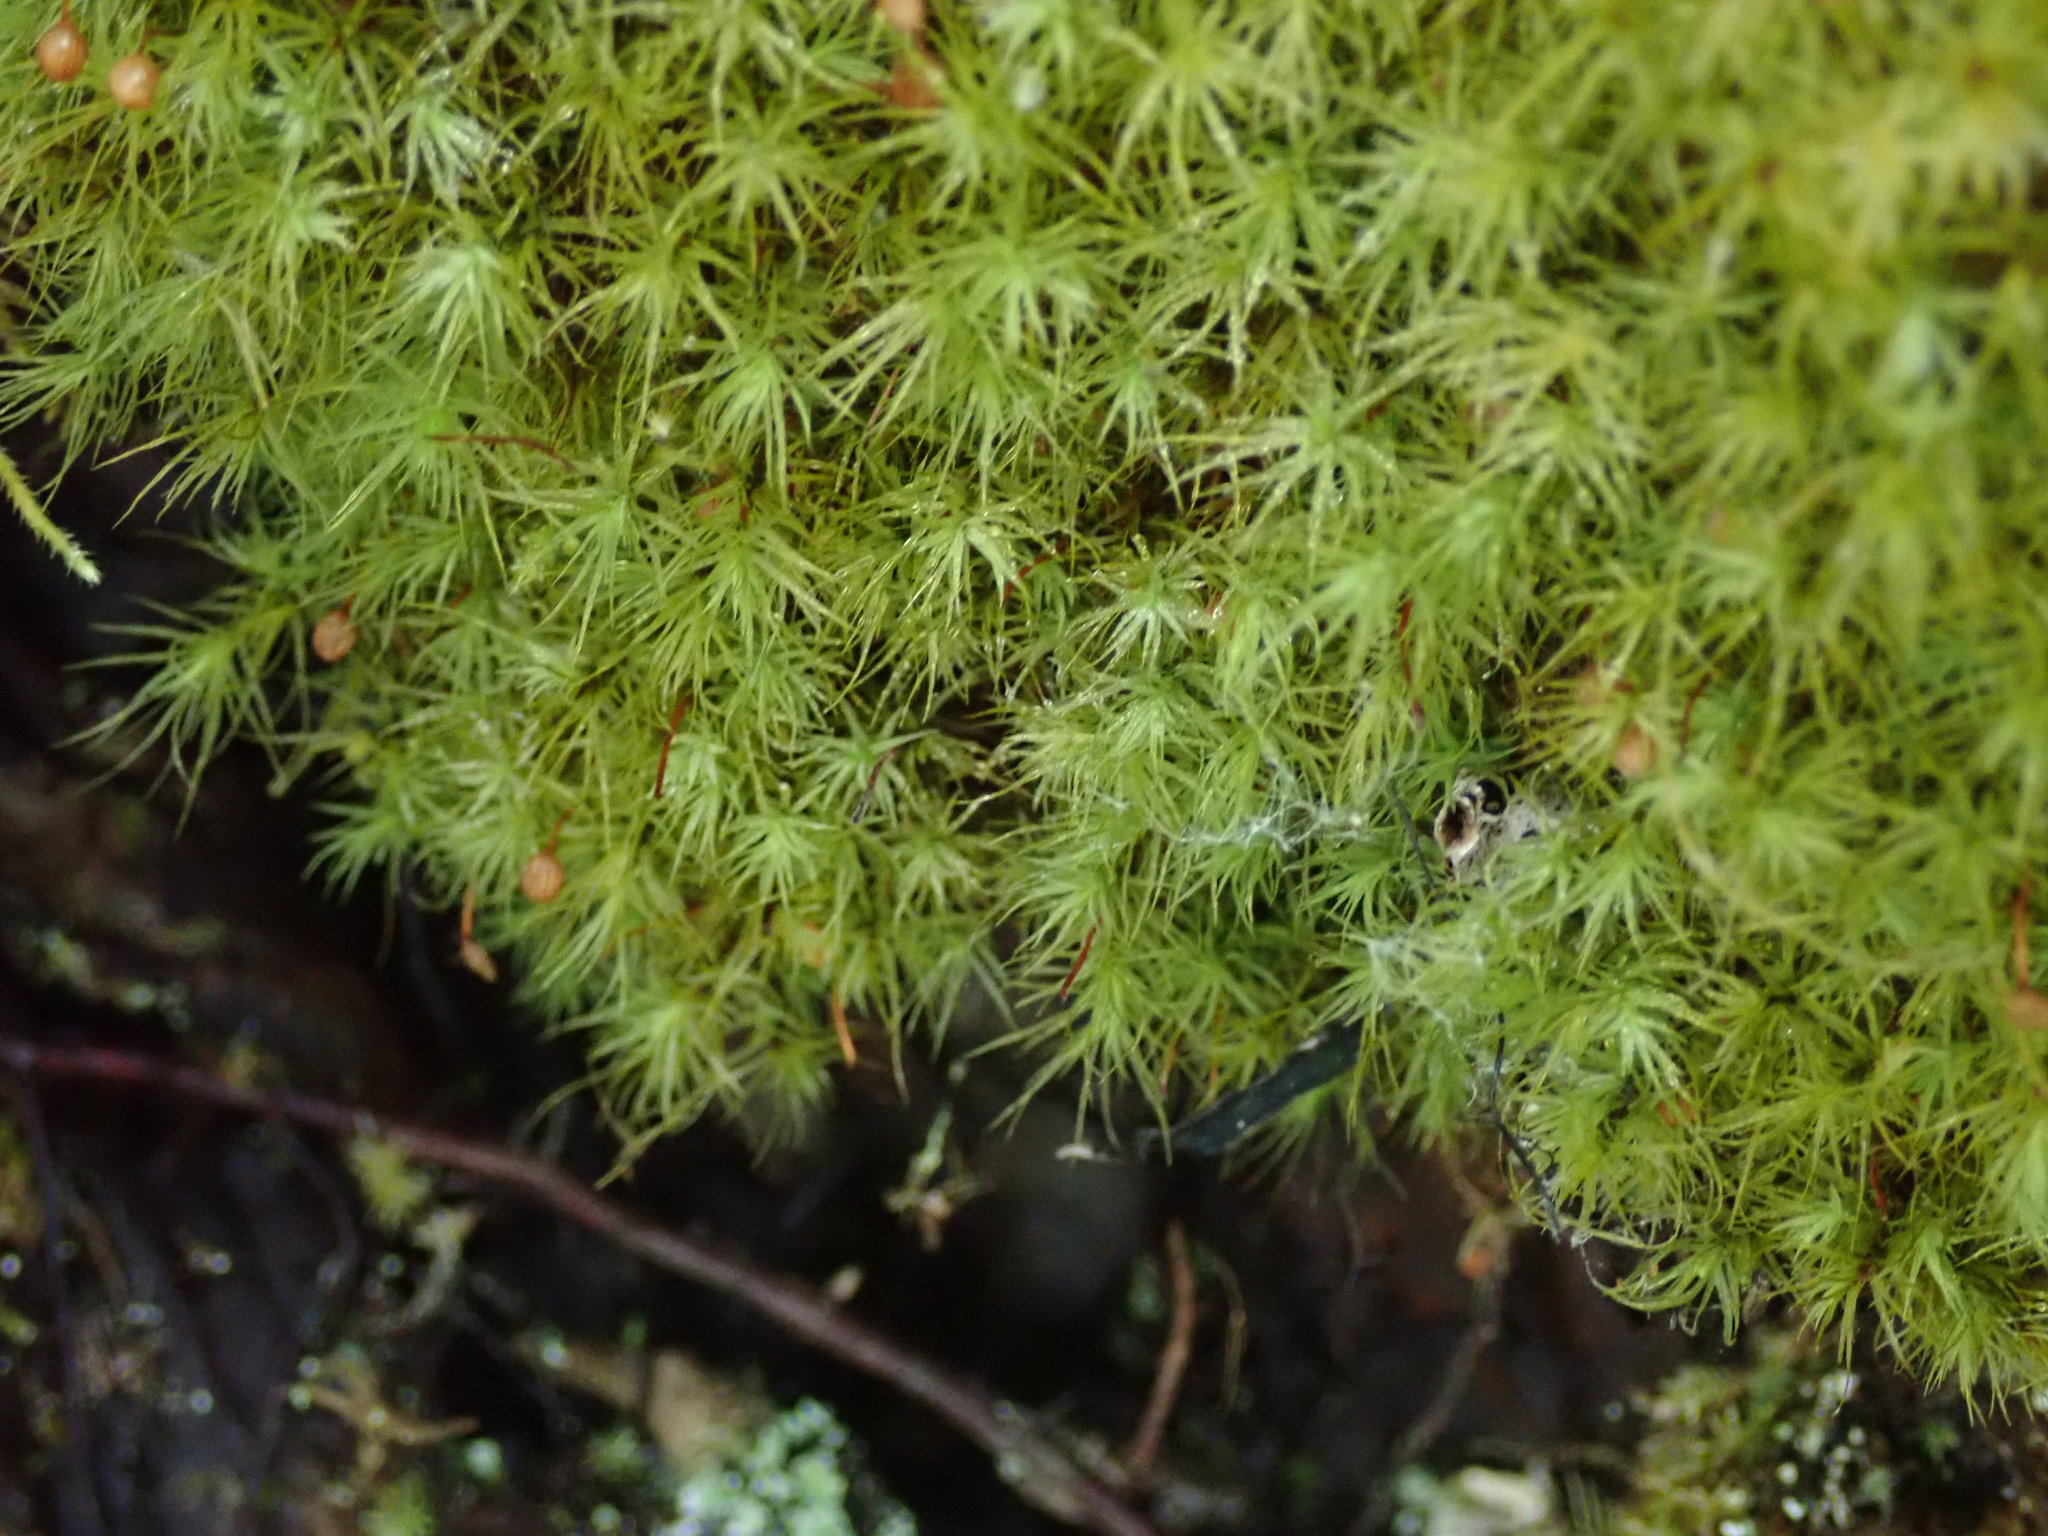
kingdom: Plantae
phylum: Bryophyta
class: Bryopsida
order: Bartramiales
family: Bartramiaceae
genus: Bartramia
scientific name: Bartramia ithyphylla
